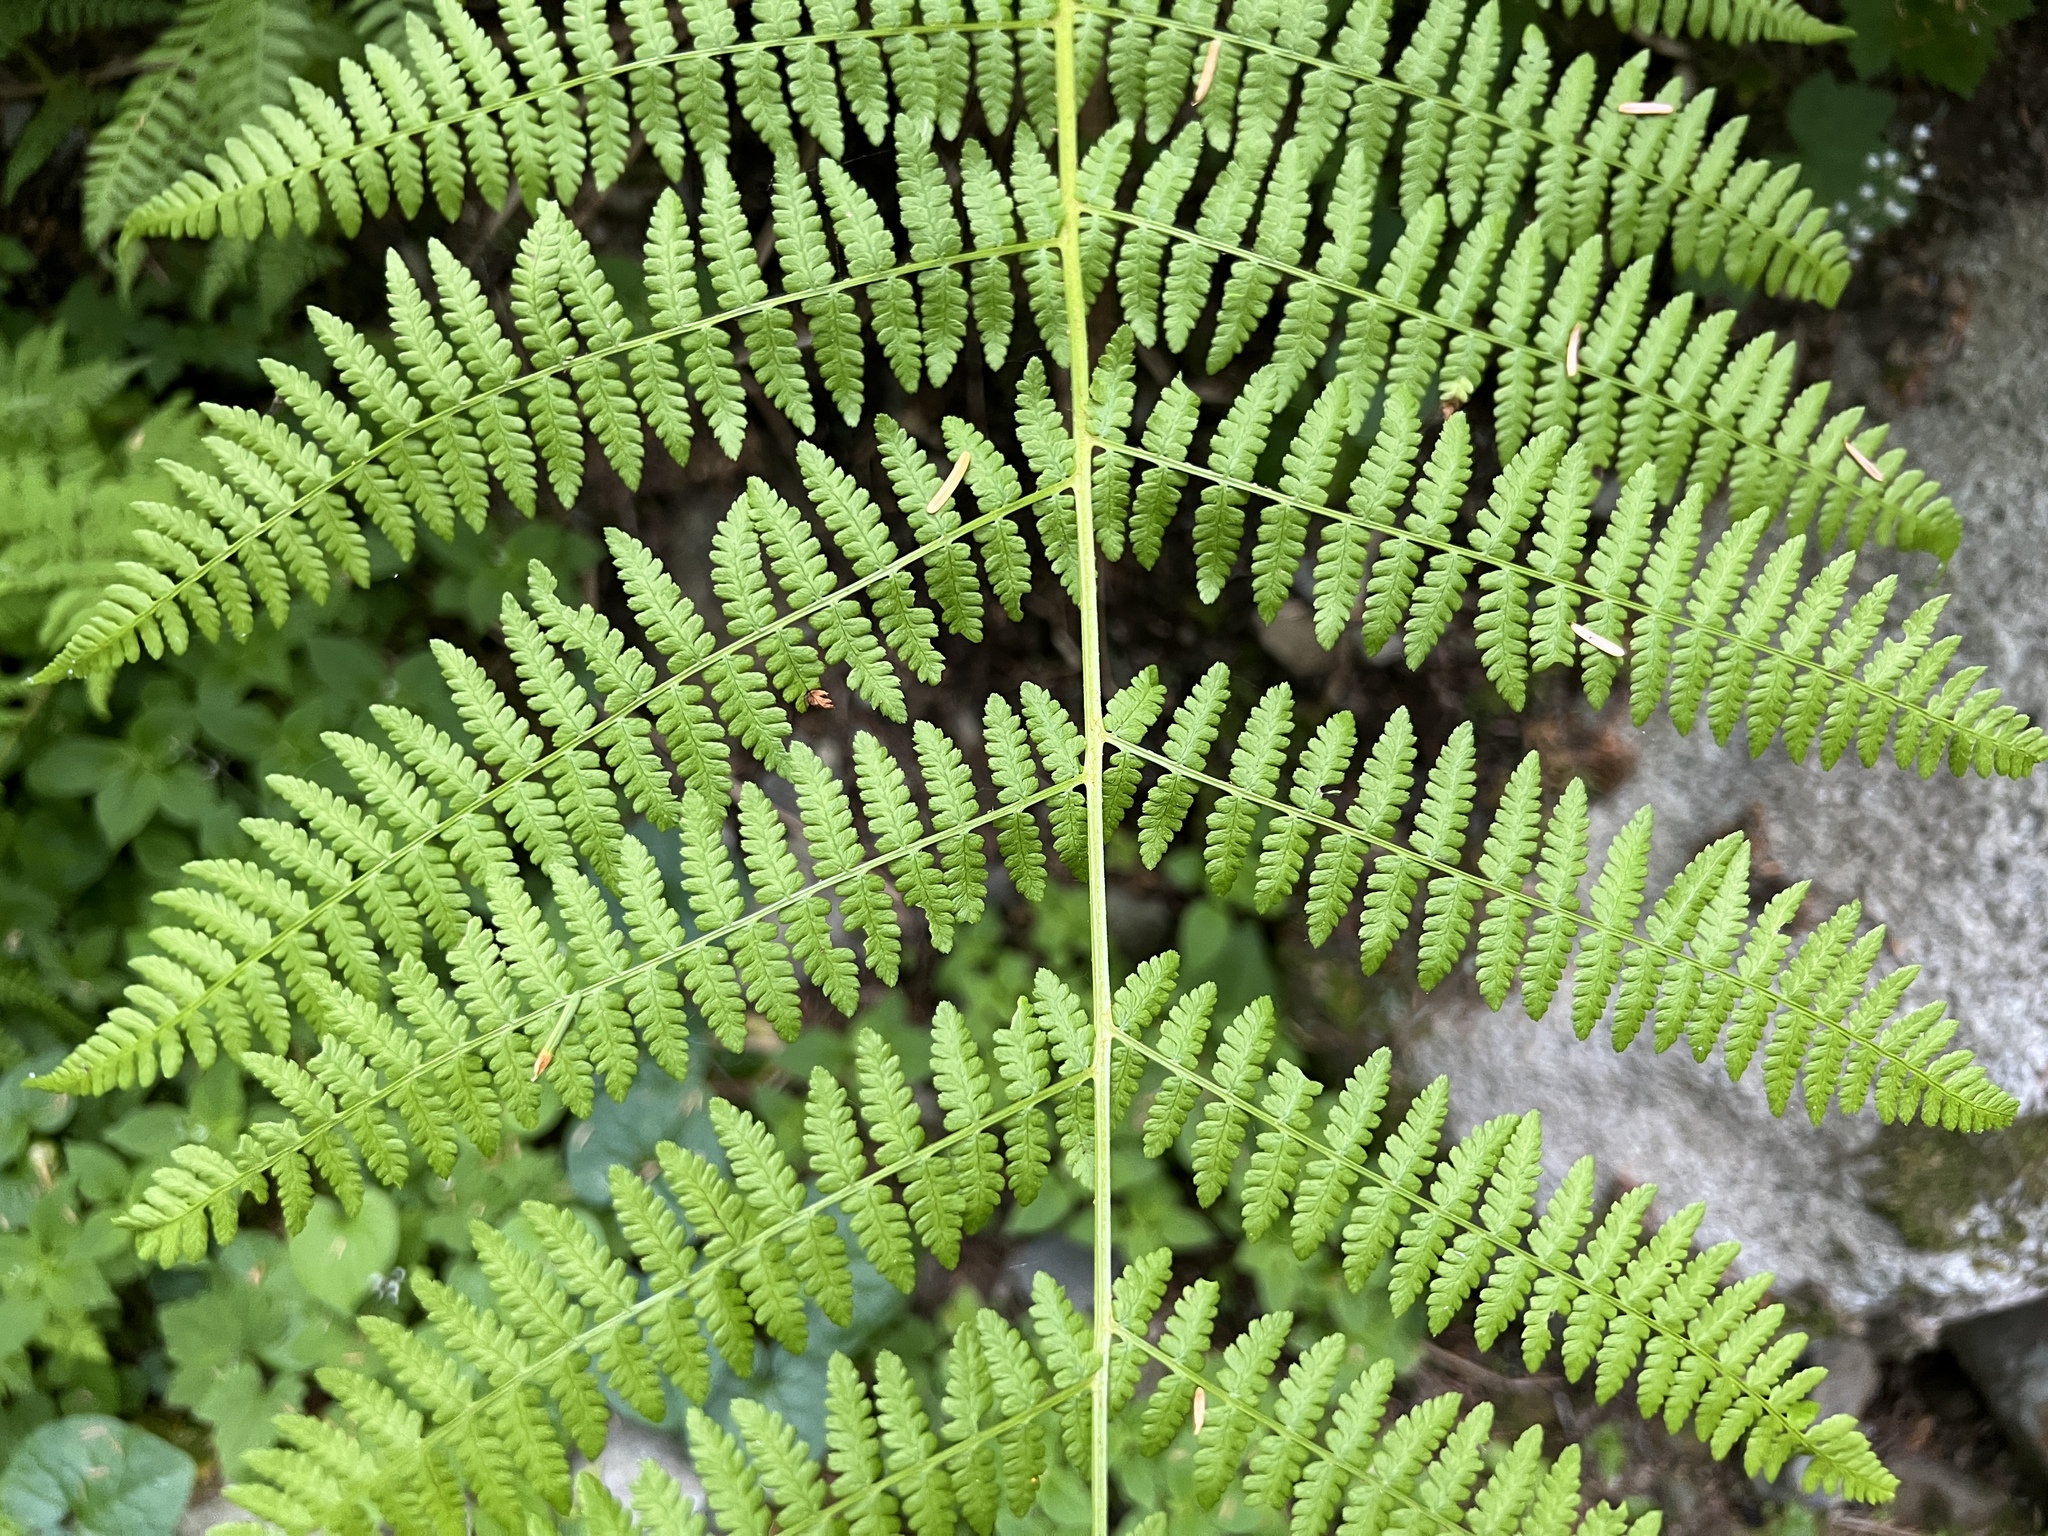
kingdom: Plantae
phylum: Tracheophyta
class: Polypodiopsida
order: Polypodiales
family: Athyriaceae
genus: Athyrium
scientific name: Athyrium filix-femina
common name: Lady fern
